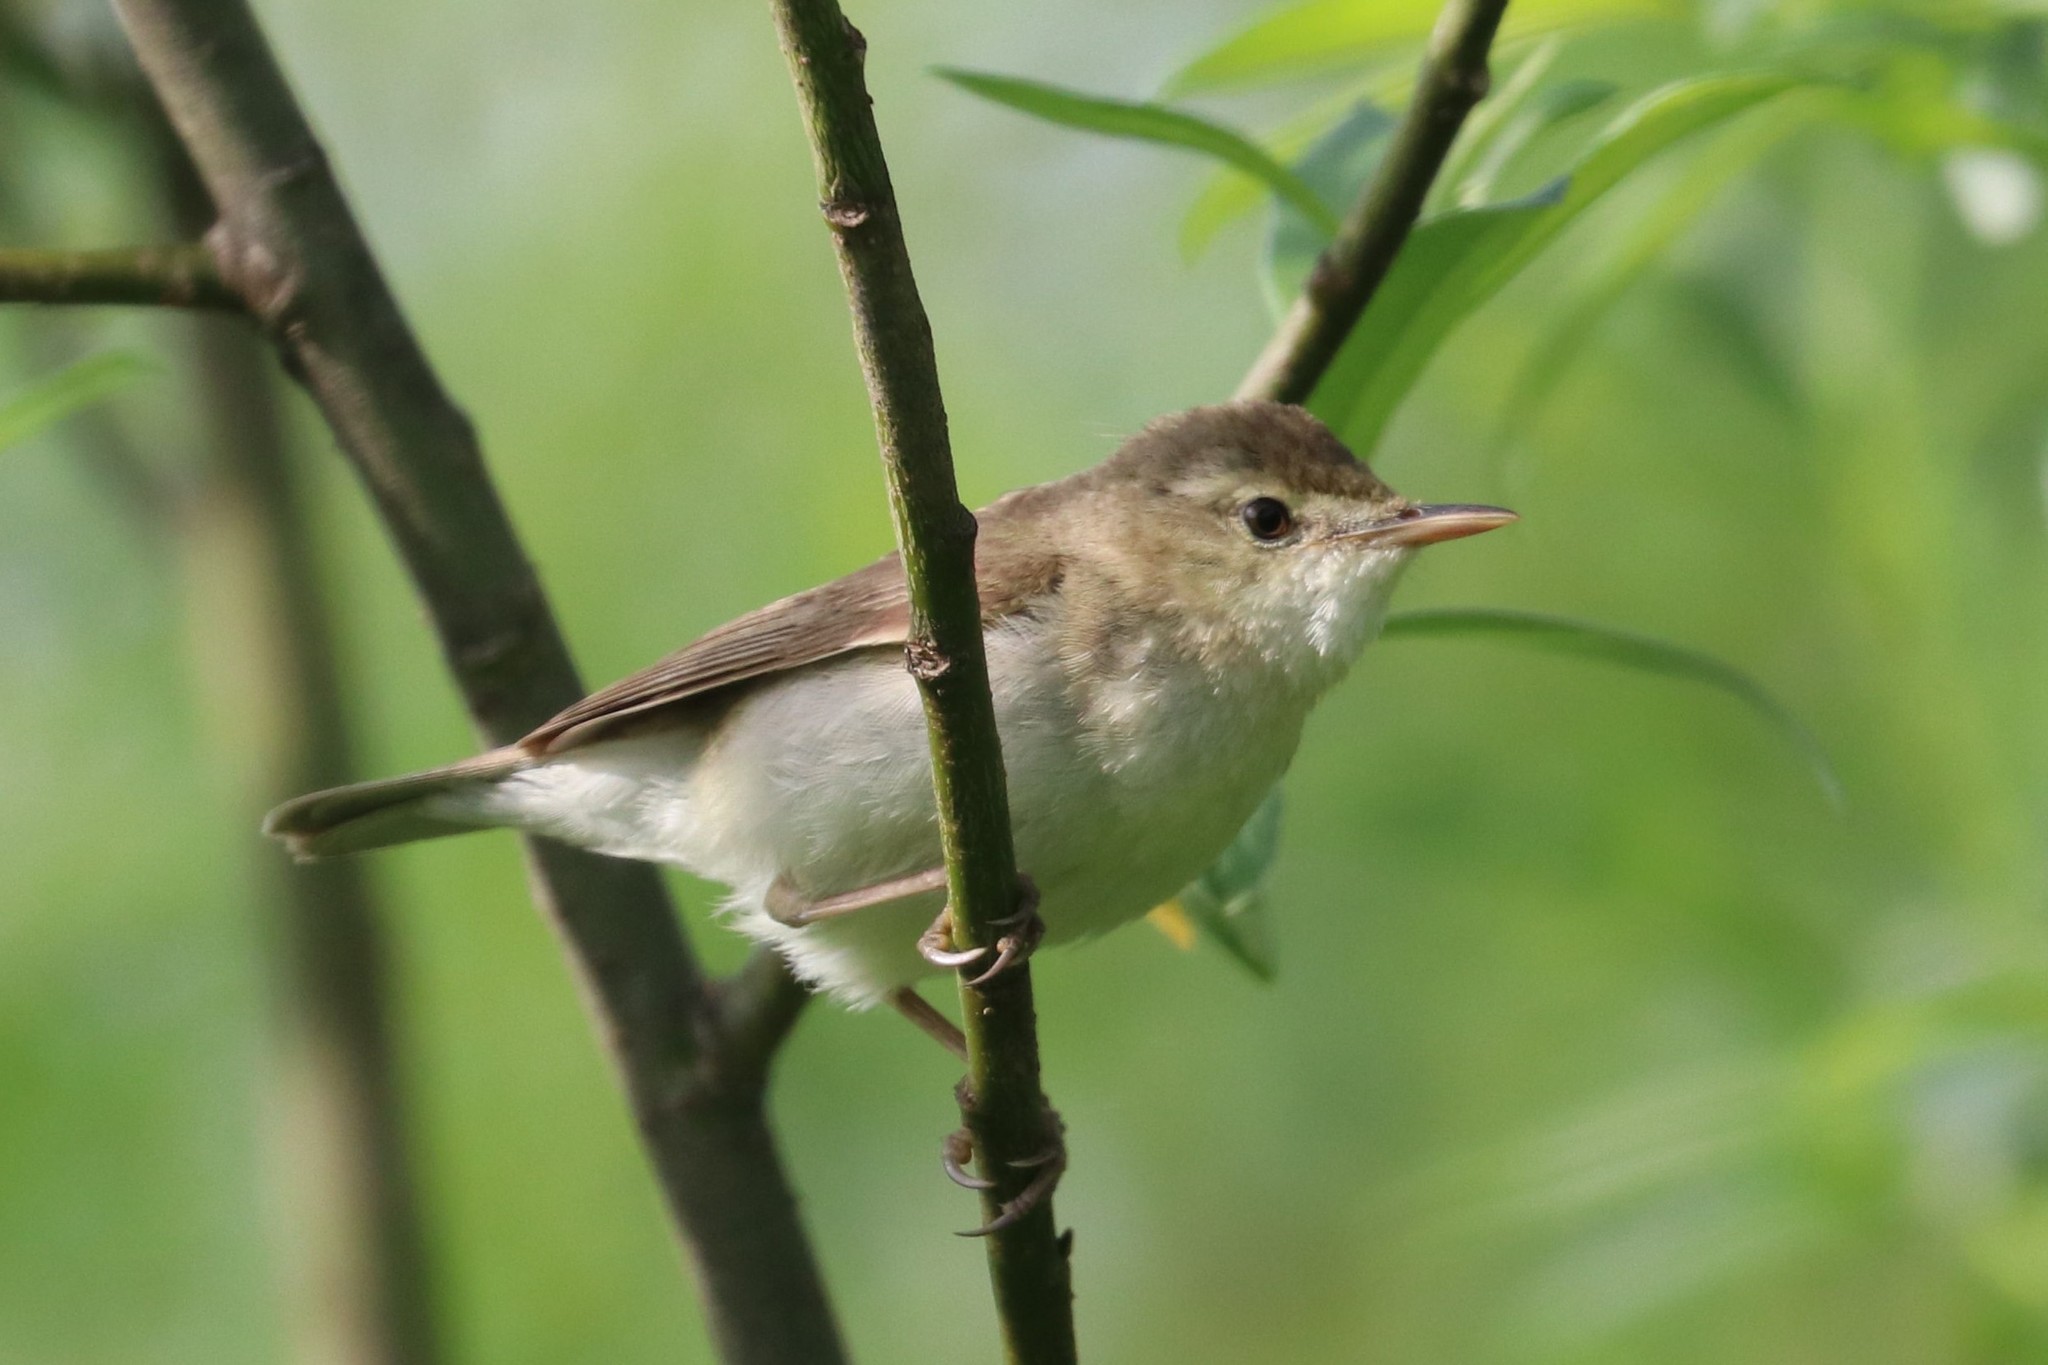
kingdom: Animalia
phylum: Chordata
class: Aves
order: Passeriformes
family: Acrocephalidae
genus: Acrocephalus
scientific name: Acrocephalus dumetorum
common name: Blyth's reed warbler
